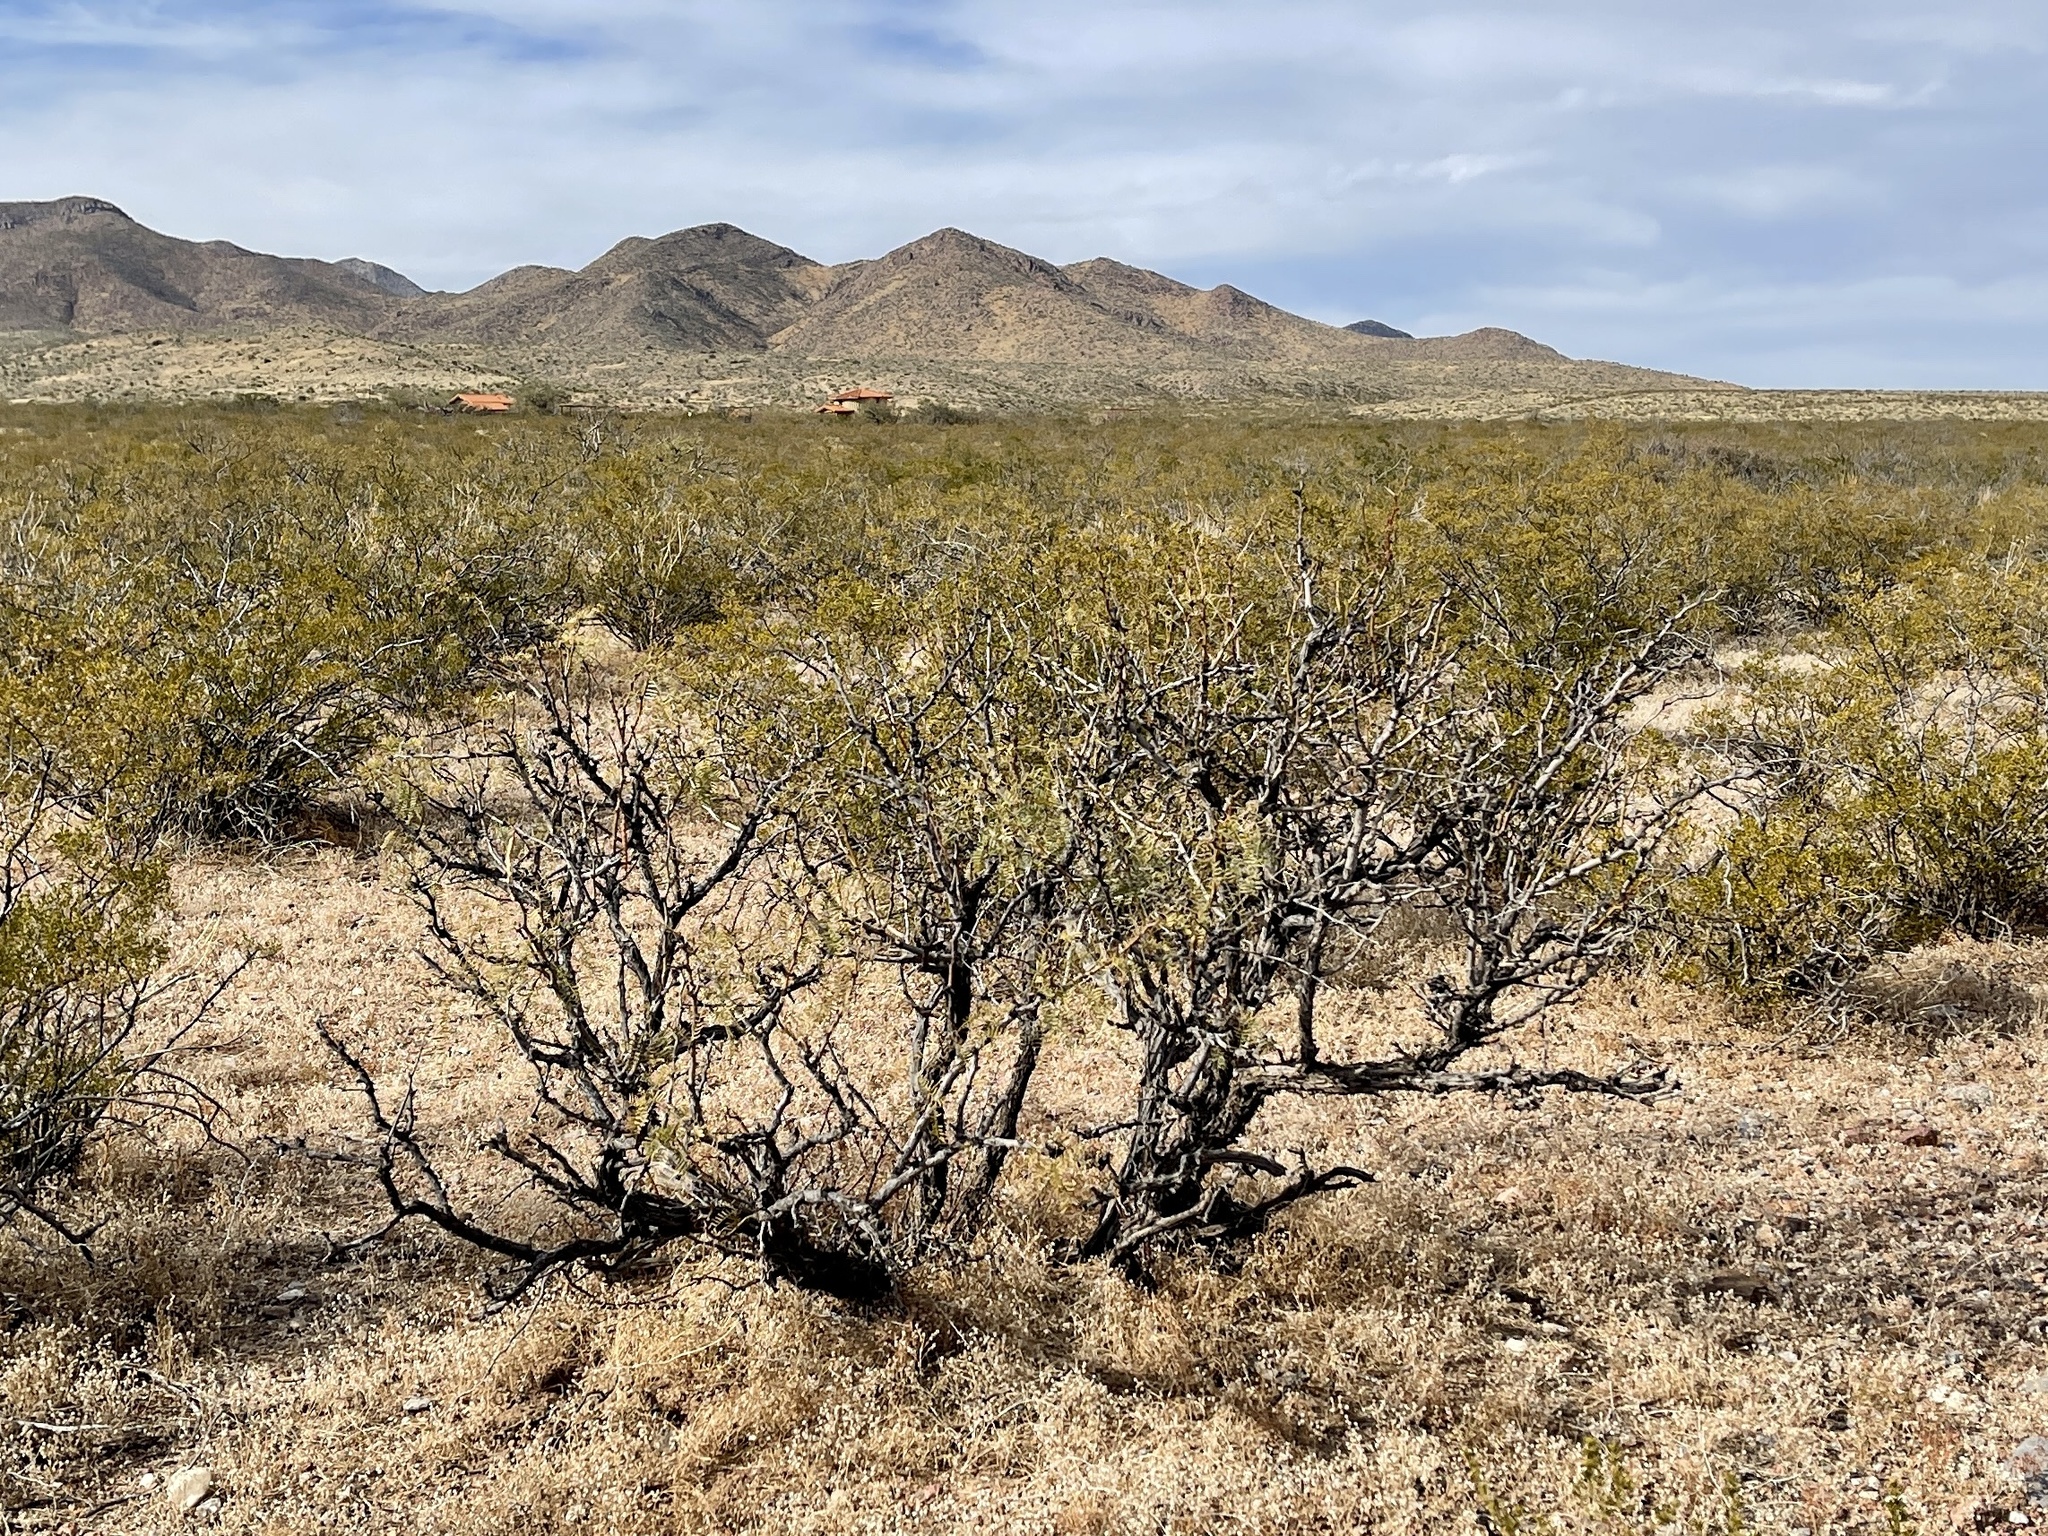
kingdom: Plantae
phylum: Tracheophyta
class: Magnoliopsida
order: Fabales
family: Fabaceae
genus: Prosopis
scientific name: Prosopis glandulosa
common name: Honey mesquite
